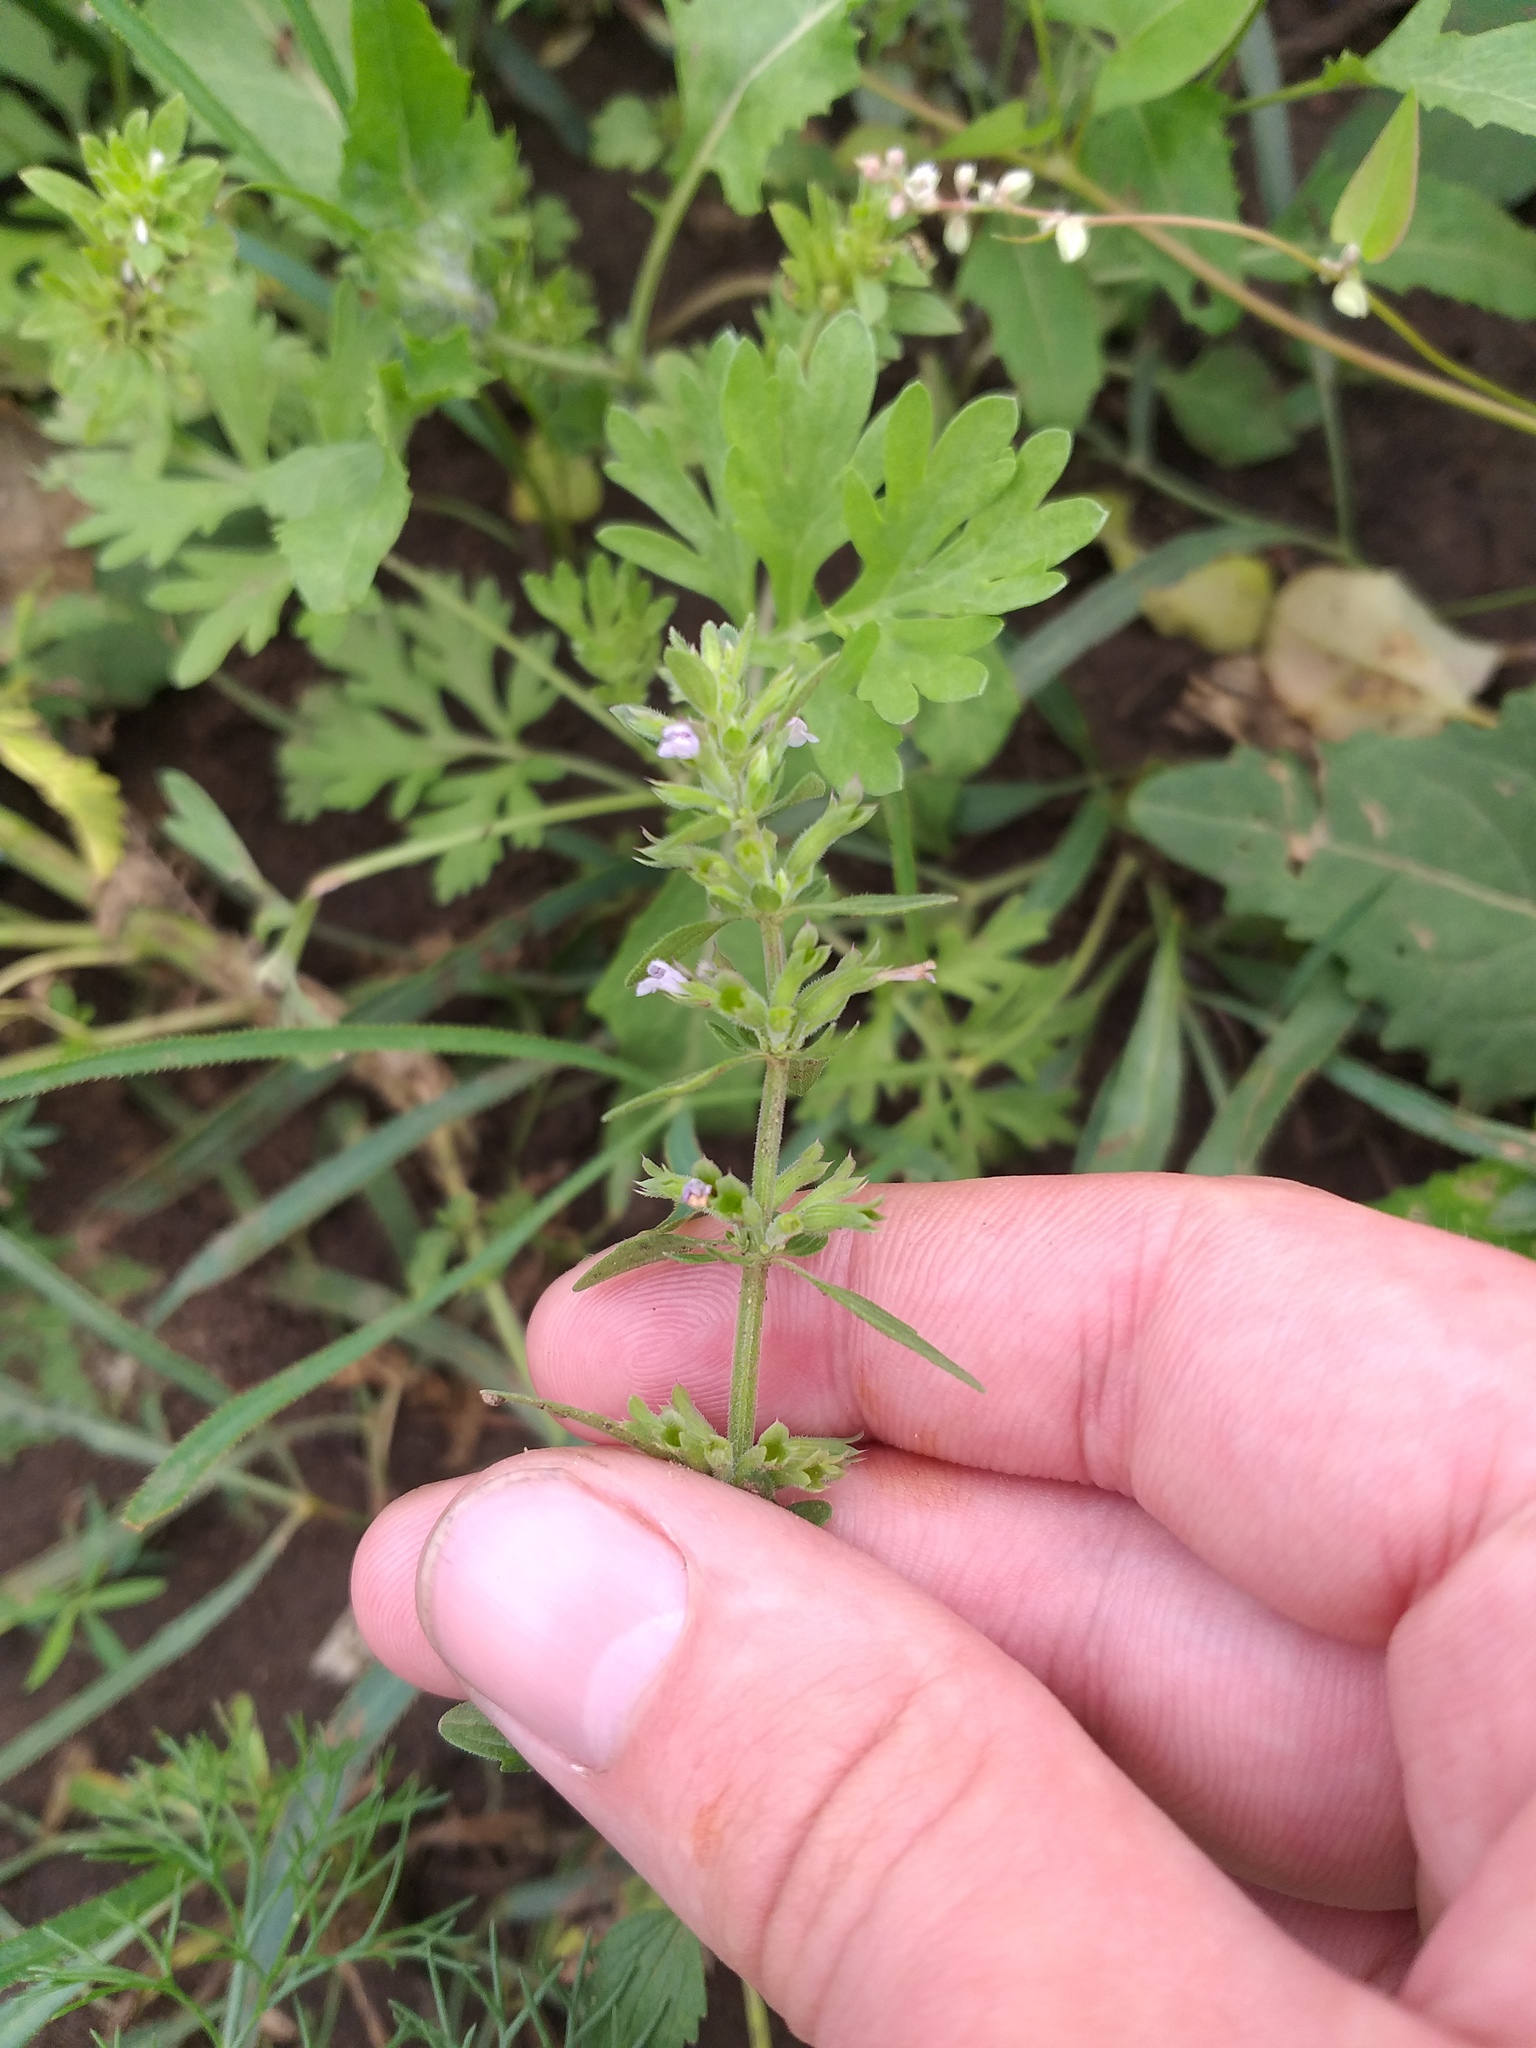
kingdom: Plantae
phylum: Tracheophyta
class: Magnoliopsida
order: Lamiales
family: Lamiaceae
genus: Dracocephalum
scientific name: Dracocephalum thymiflorum
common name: Thymeleaf dragonhead
